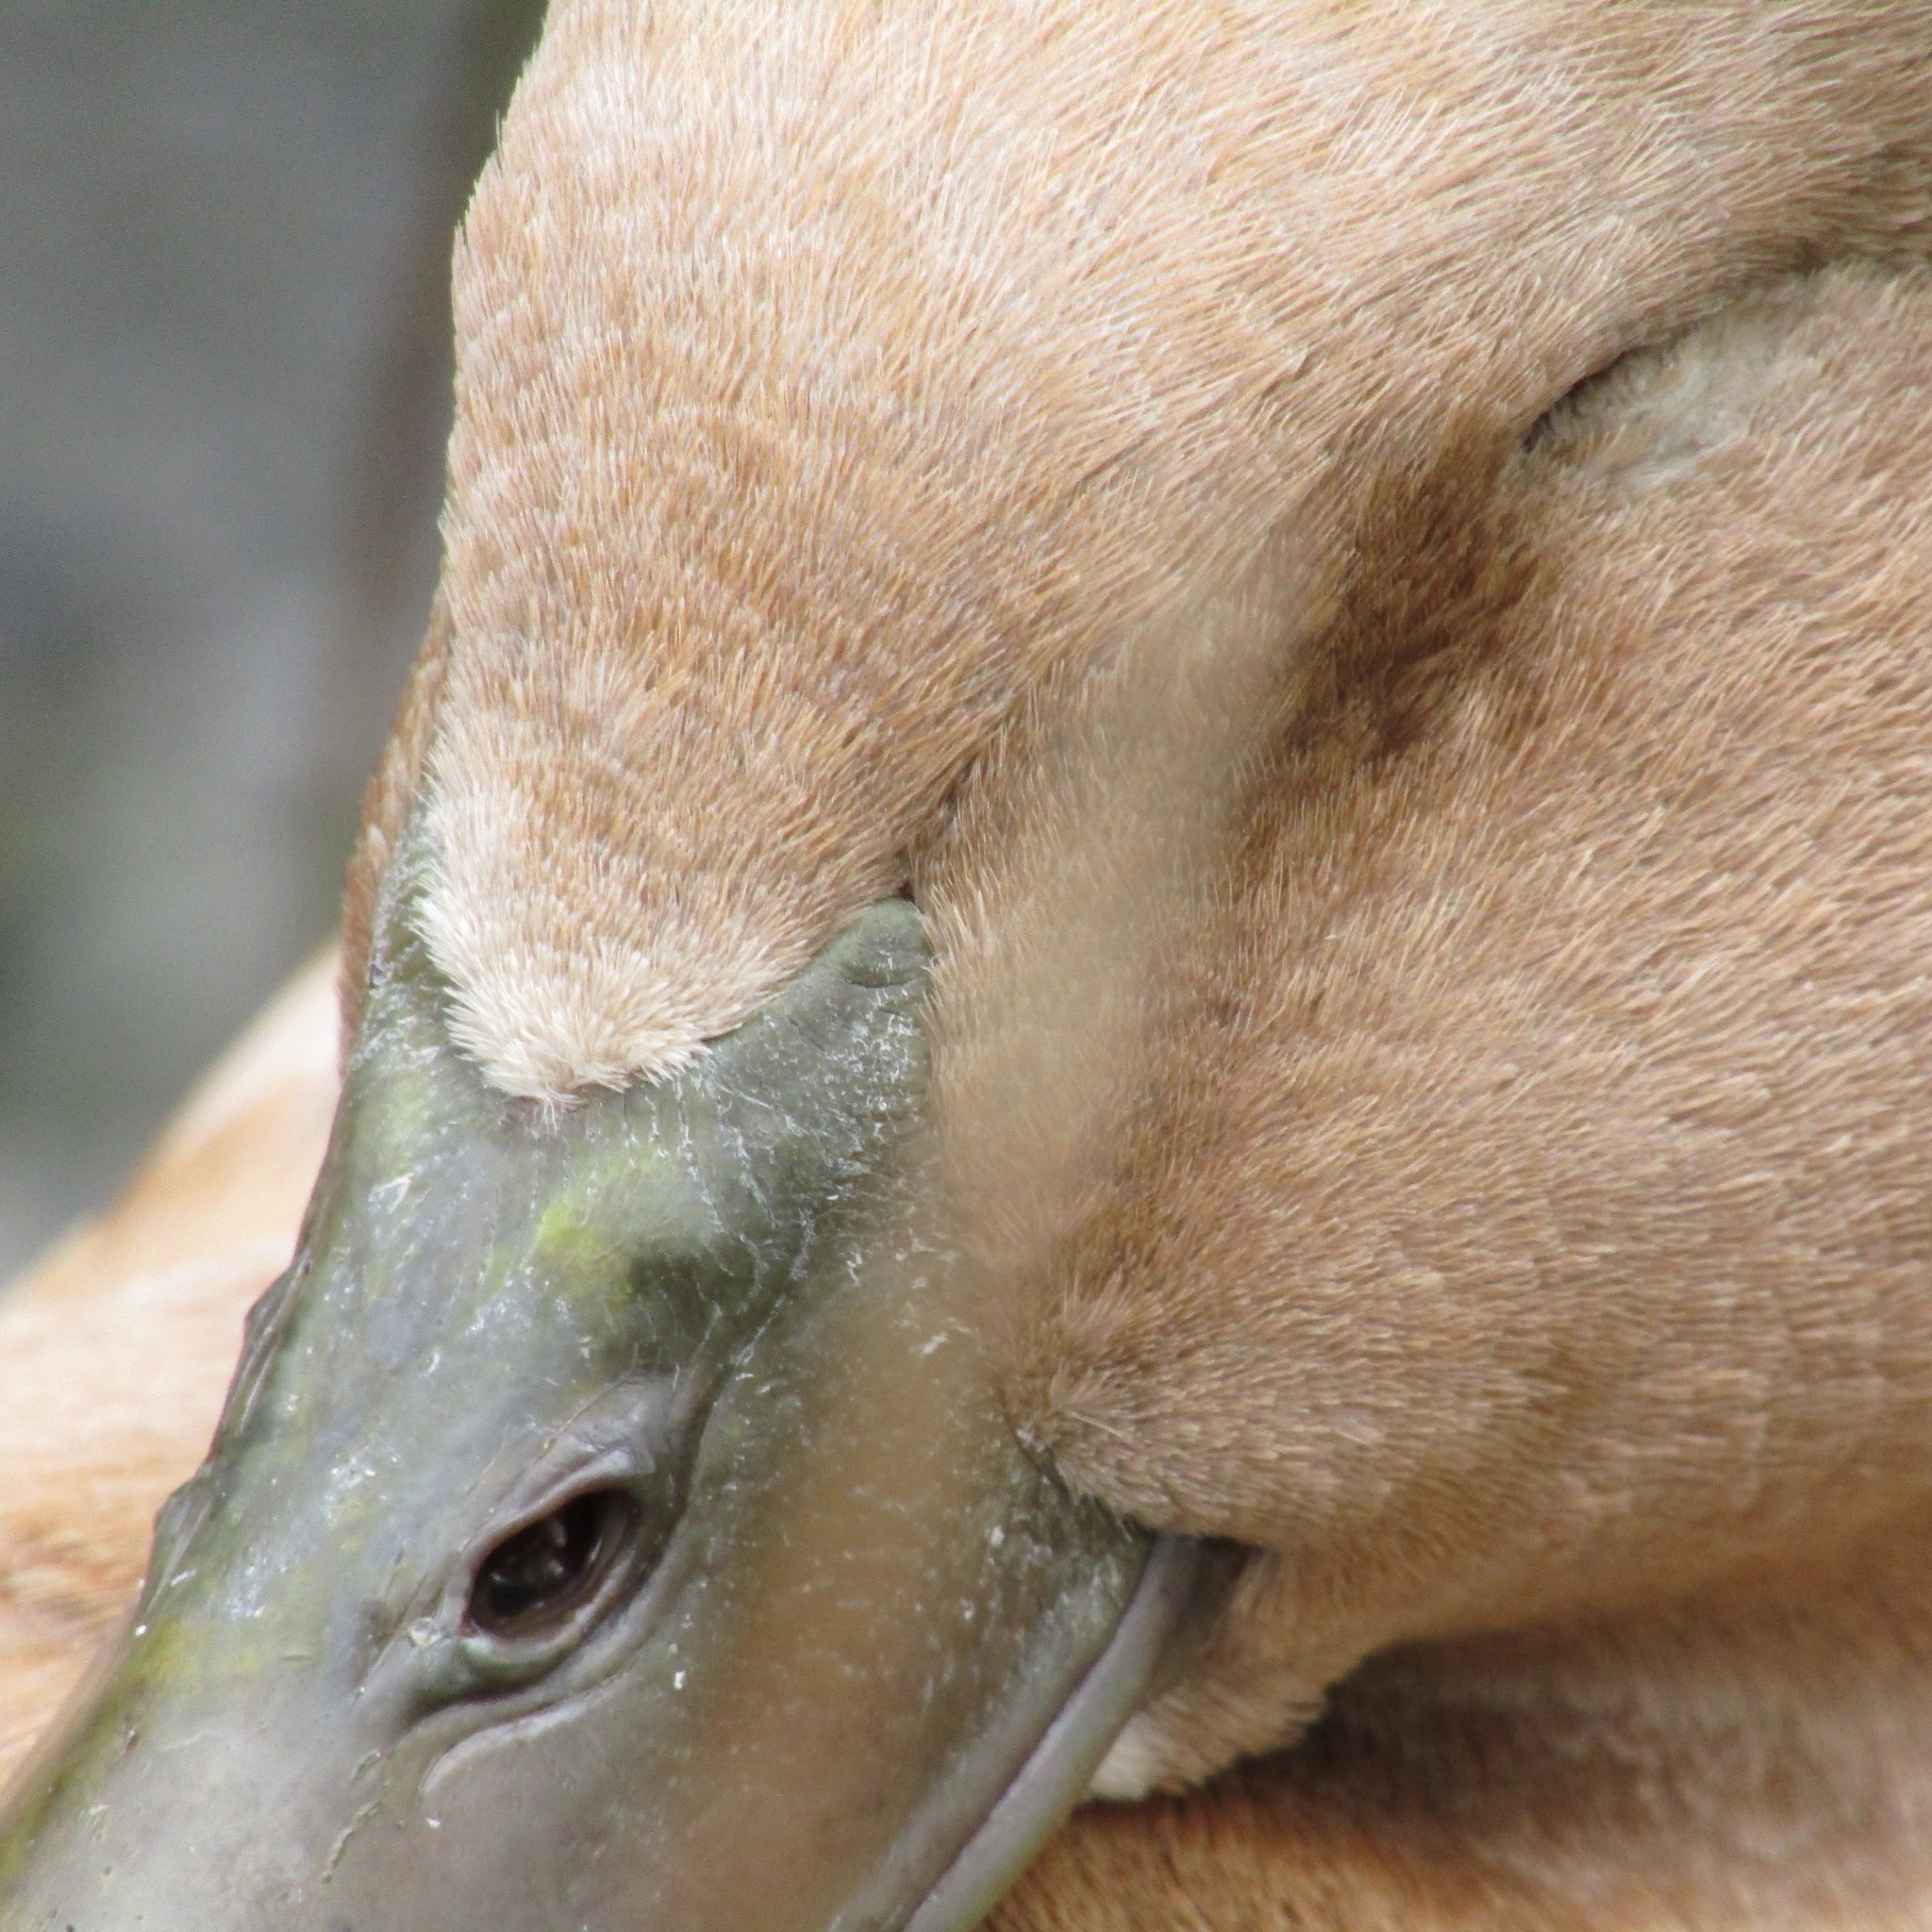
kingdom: Animalia
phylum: Chordata
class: Aves
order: Anseriformes
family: Anatidae
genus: Anas
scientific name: Anas platyrhynchos
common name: Mallard
